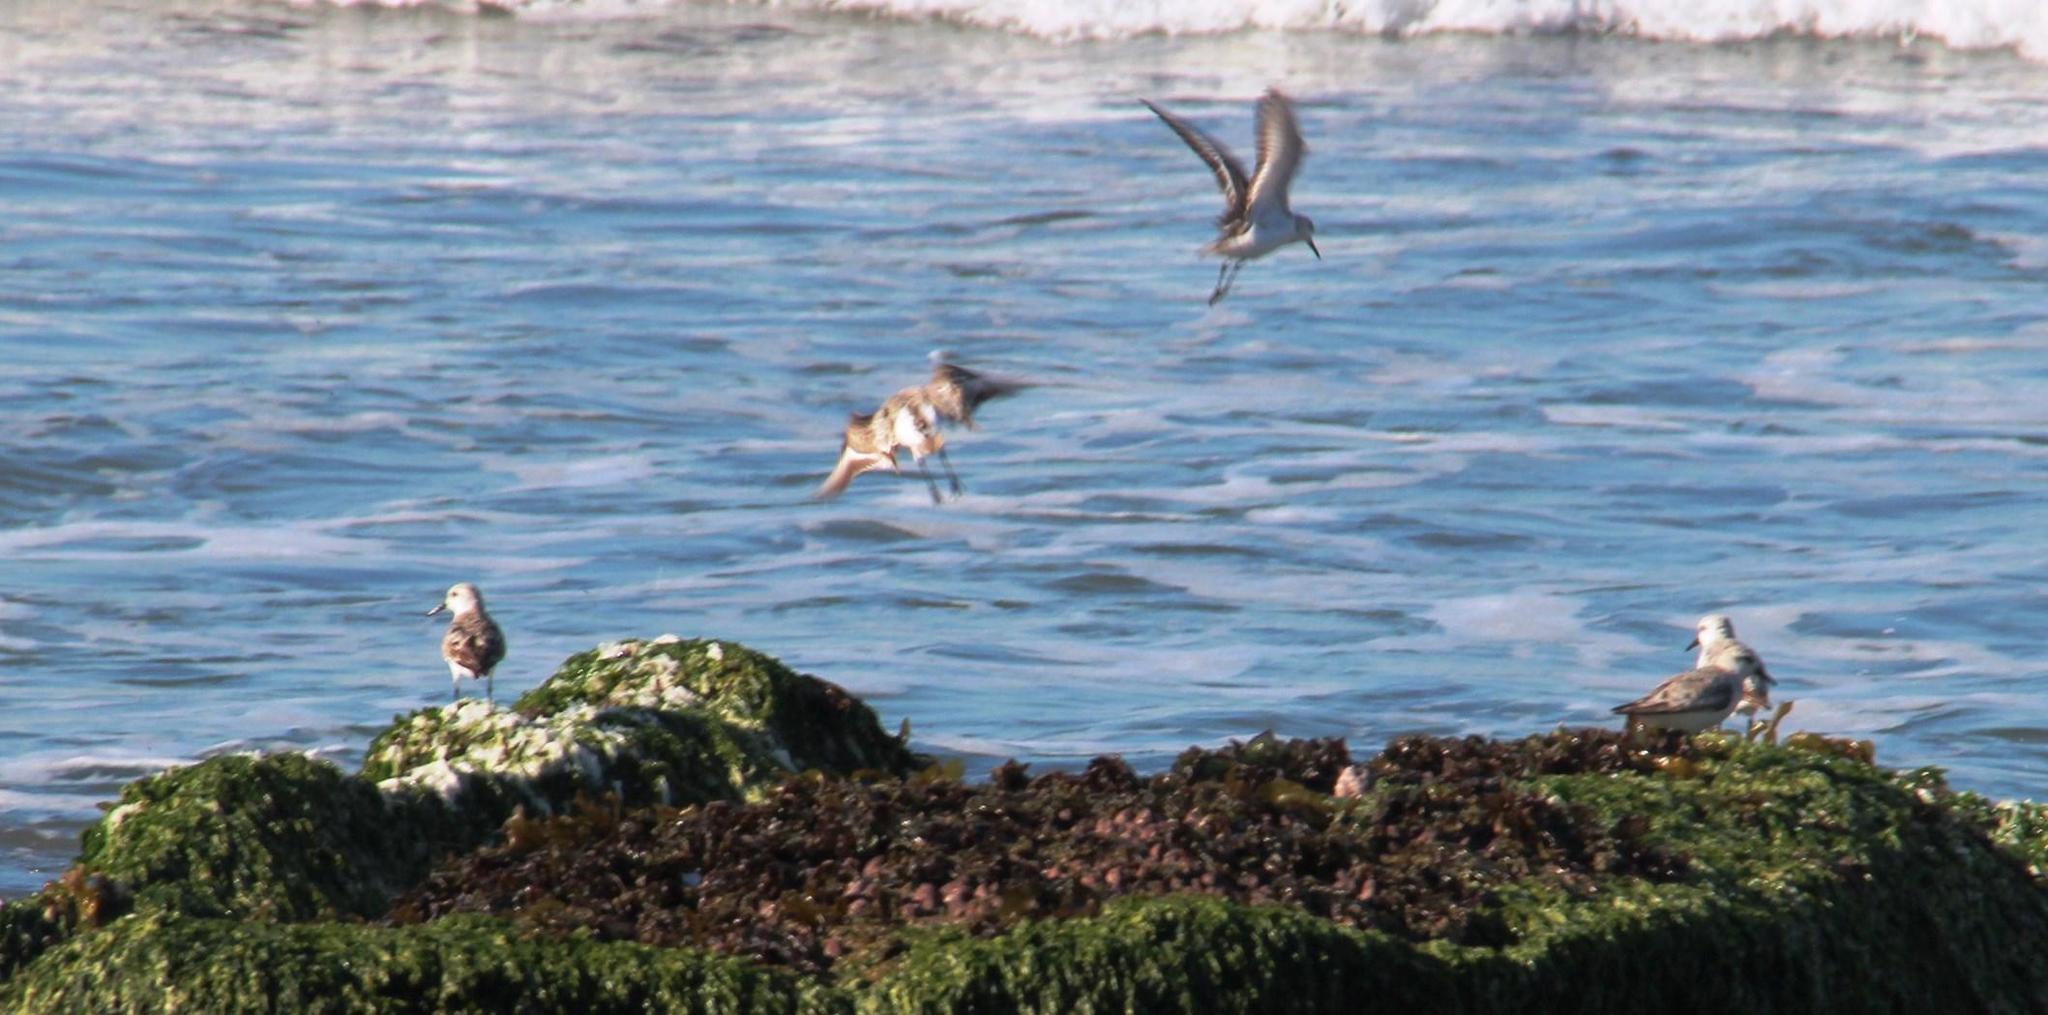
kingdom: Animalia
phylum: Chordata
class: Aves
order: Charadriiformes
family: Scolopacidae
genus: Calidris
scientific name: Calidris alba
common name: Sanderling
